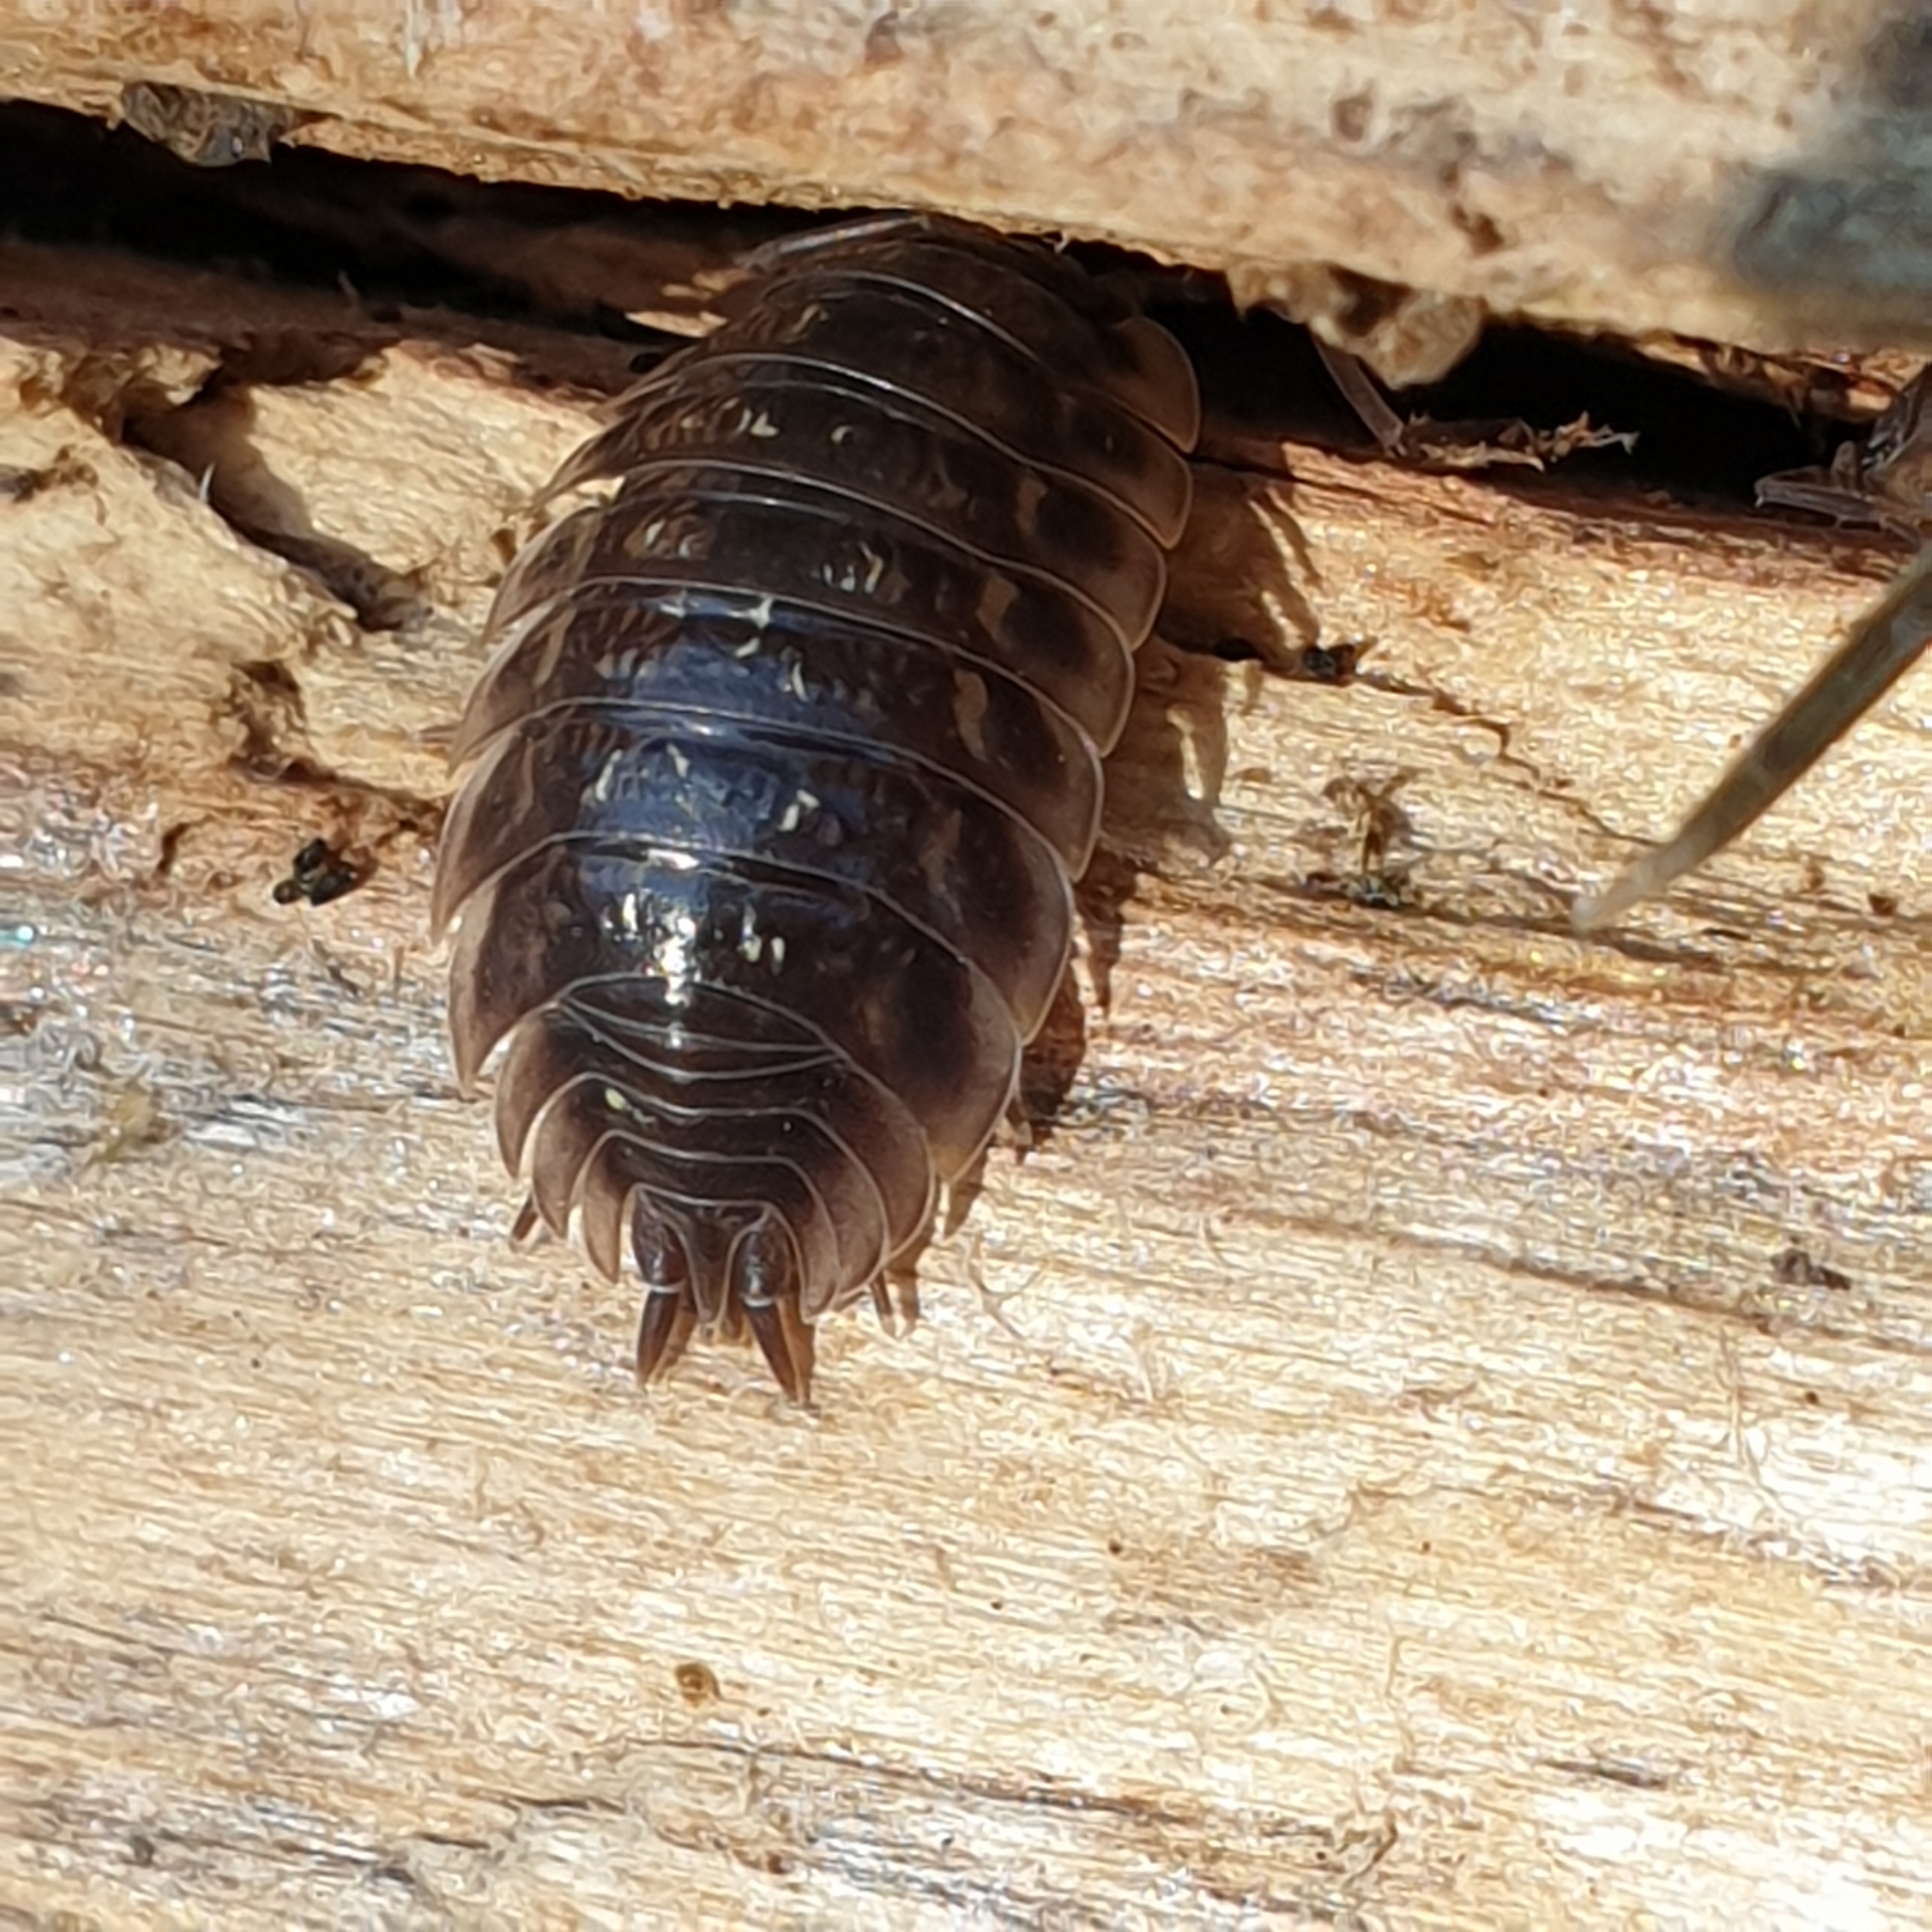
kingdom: Animalia
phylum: Arthropoda
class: Malacostraca
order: Isopoda
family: Oniscidae
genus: Oniscus
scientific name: Oniscus asellus
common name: Common shiny woodlouse
